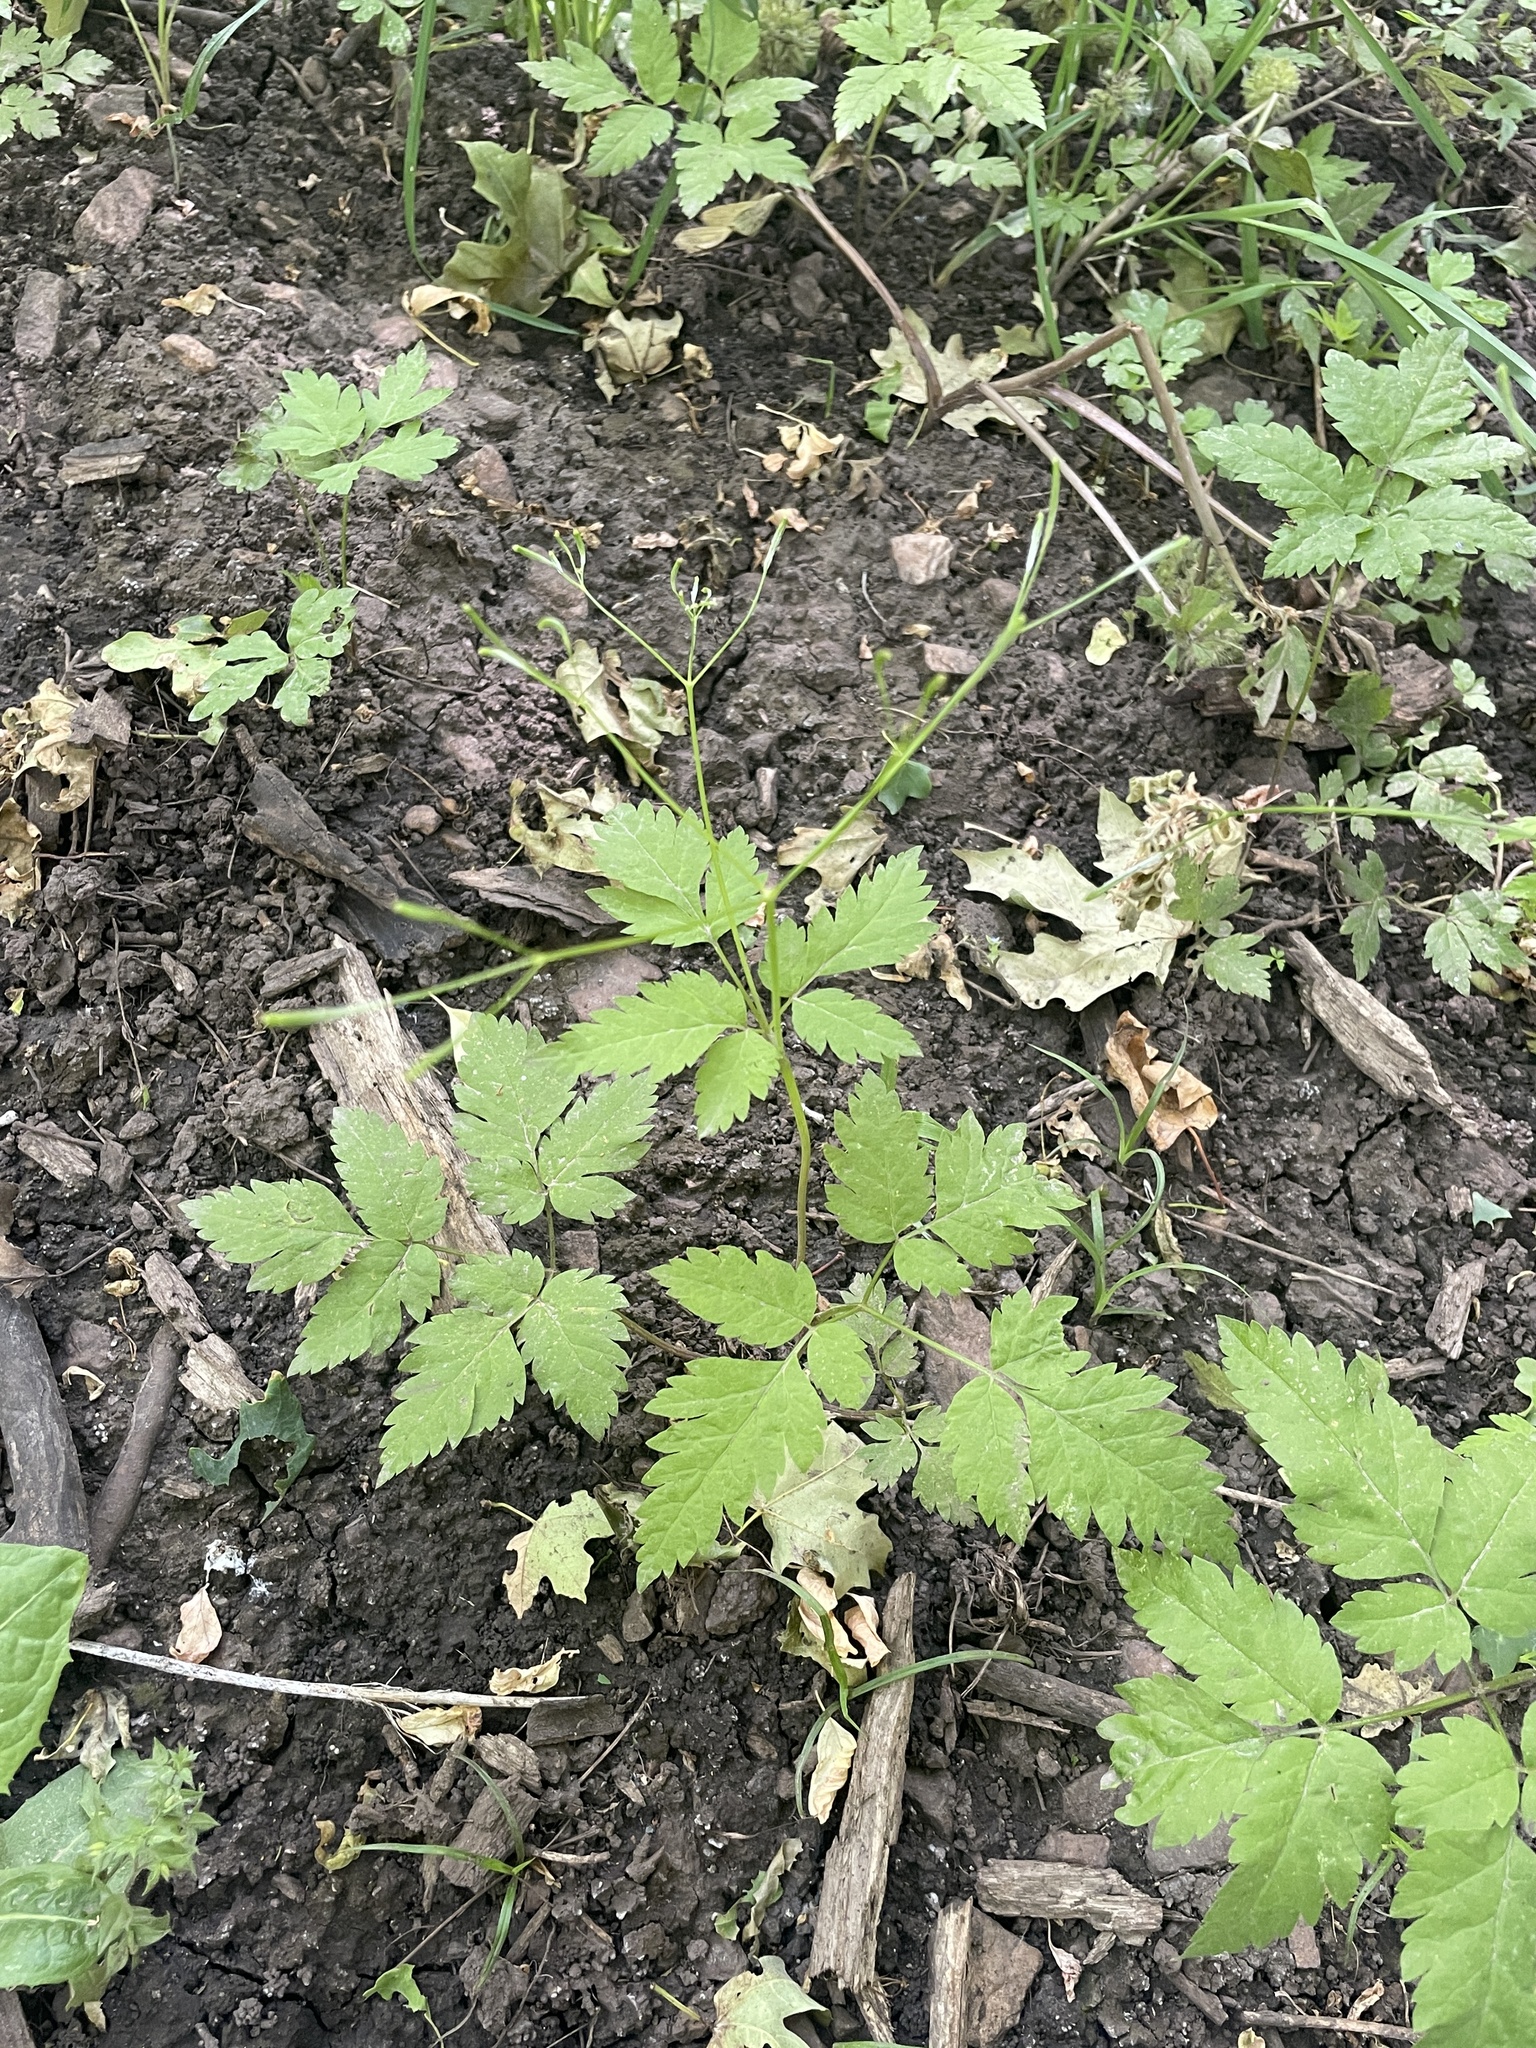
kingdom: Plantae
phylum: Tracheophyta
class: Magnoliopsida
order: Apiales
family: Apiaceae
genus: Osmorhiza
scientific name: Osmorhiza berteroi
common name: Mountain sweet cicely
